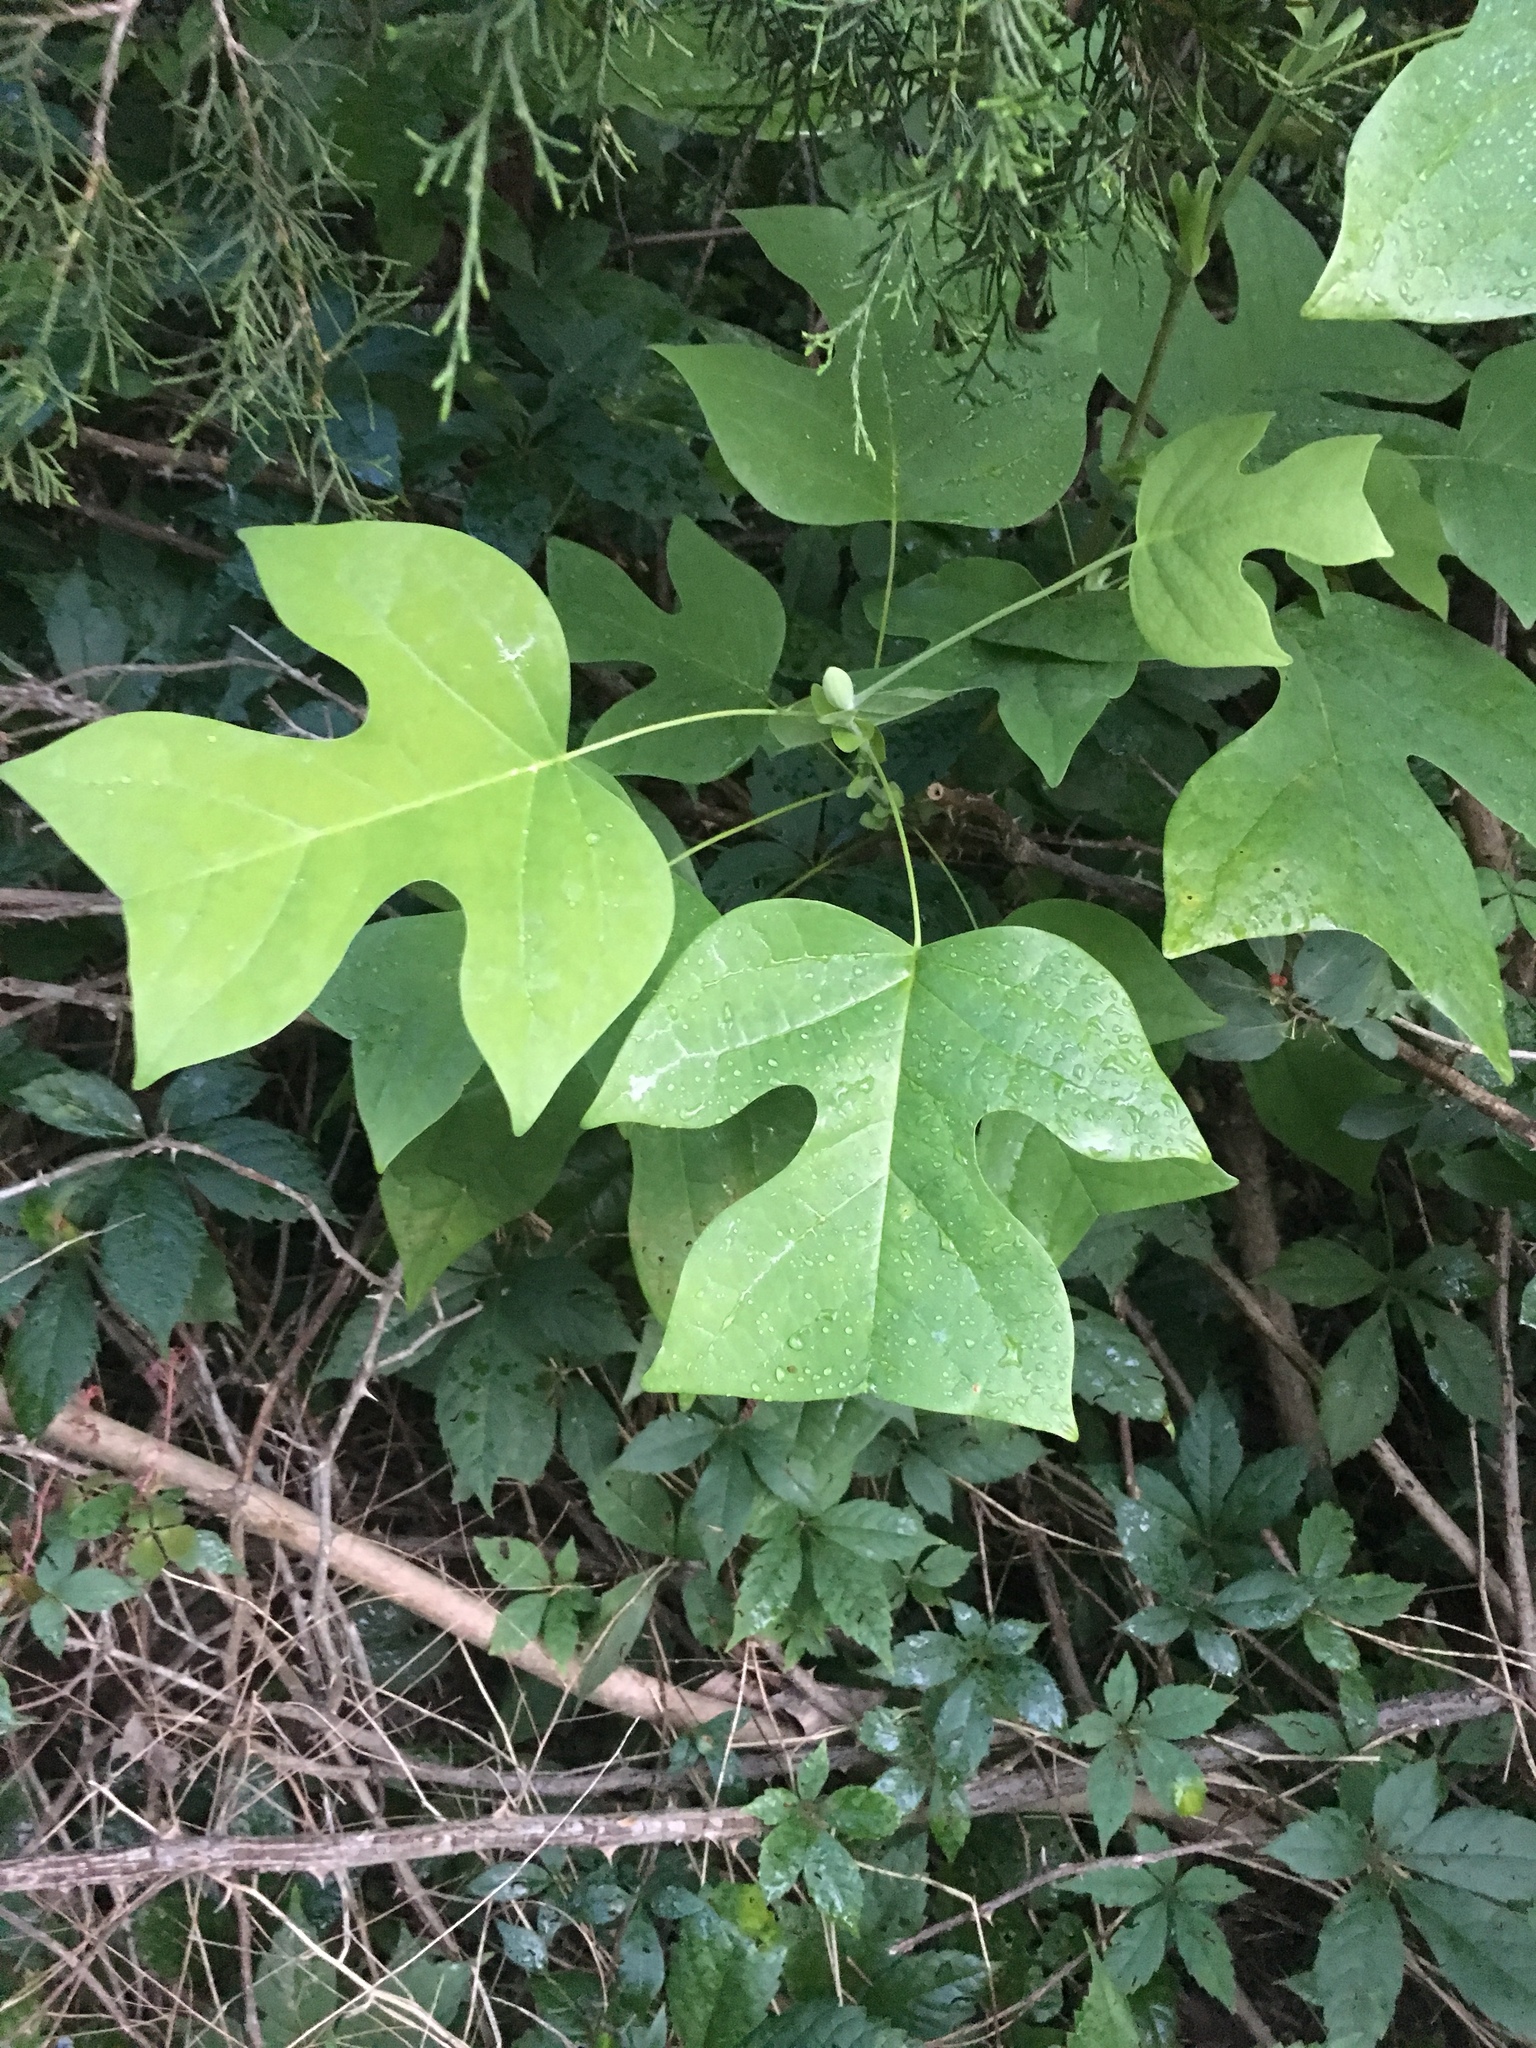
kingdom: Plantae
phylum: Tracheophyta
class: Magnoliopsida
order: Magnoliales
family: Magnoliaceae
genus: Liriodendron
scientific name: Liriodendron tulipifera
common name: Tulip tree
